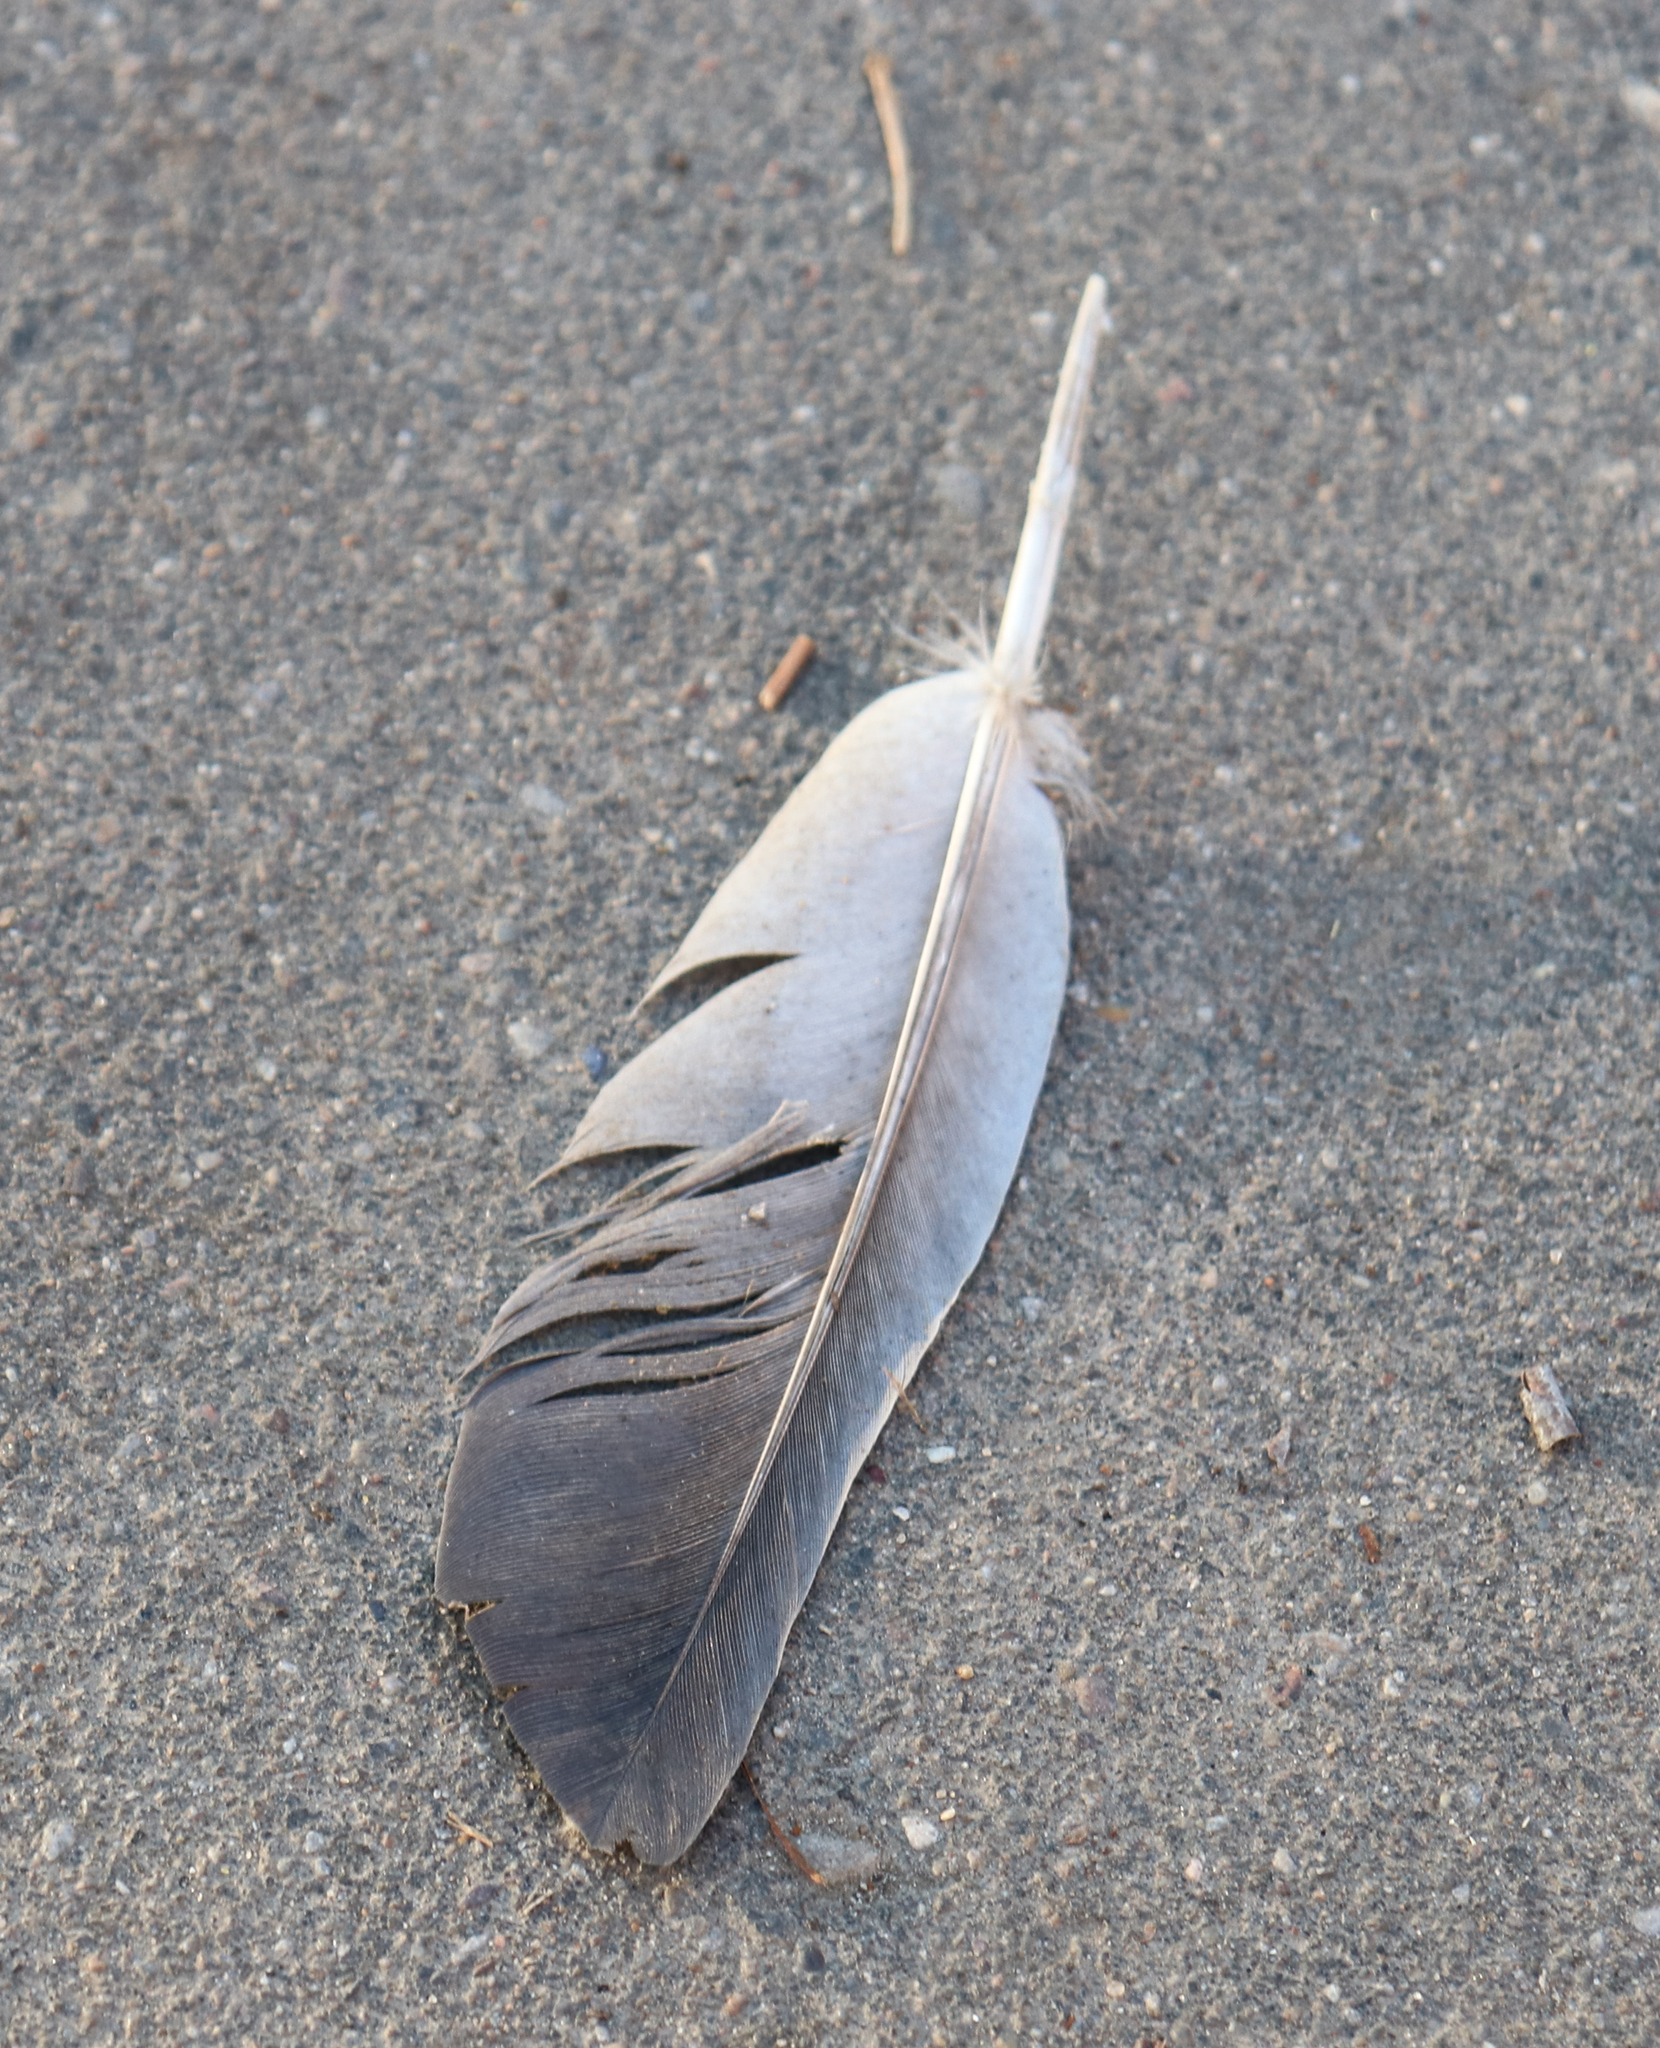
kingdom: Animalia
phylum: Chordata
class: Aves
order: Columbiformes
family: Columbidae
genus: Columba
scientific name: Columba livia
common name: Rock pigeon
